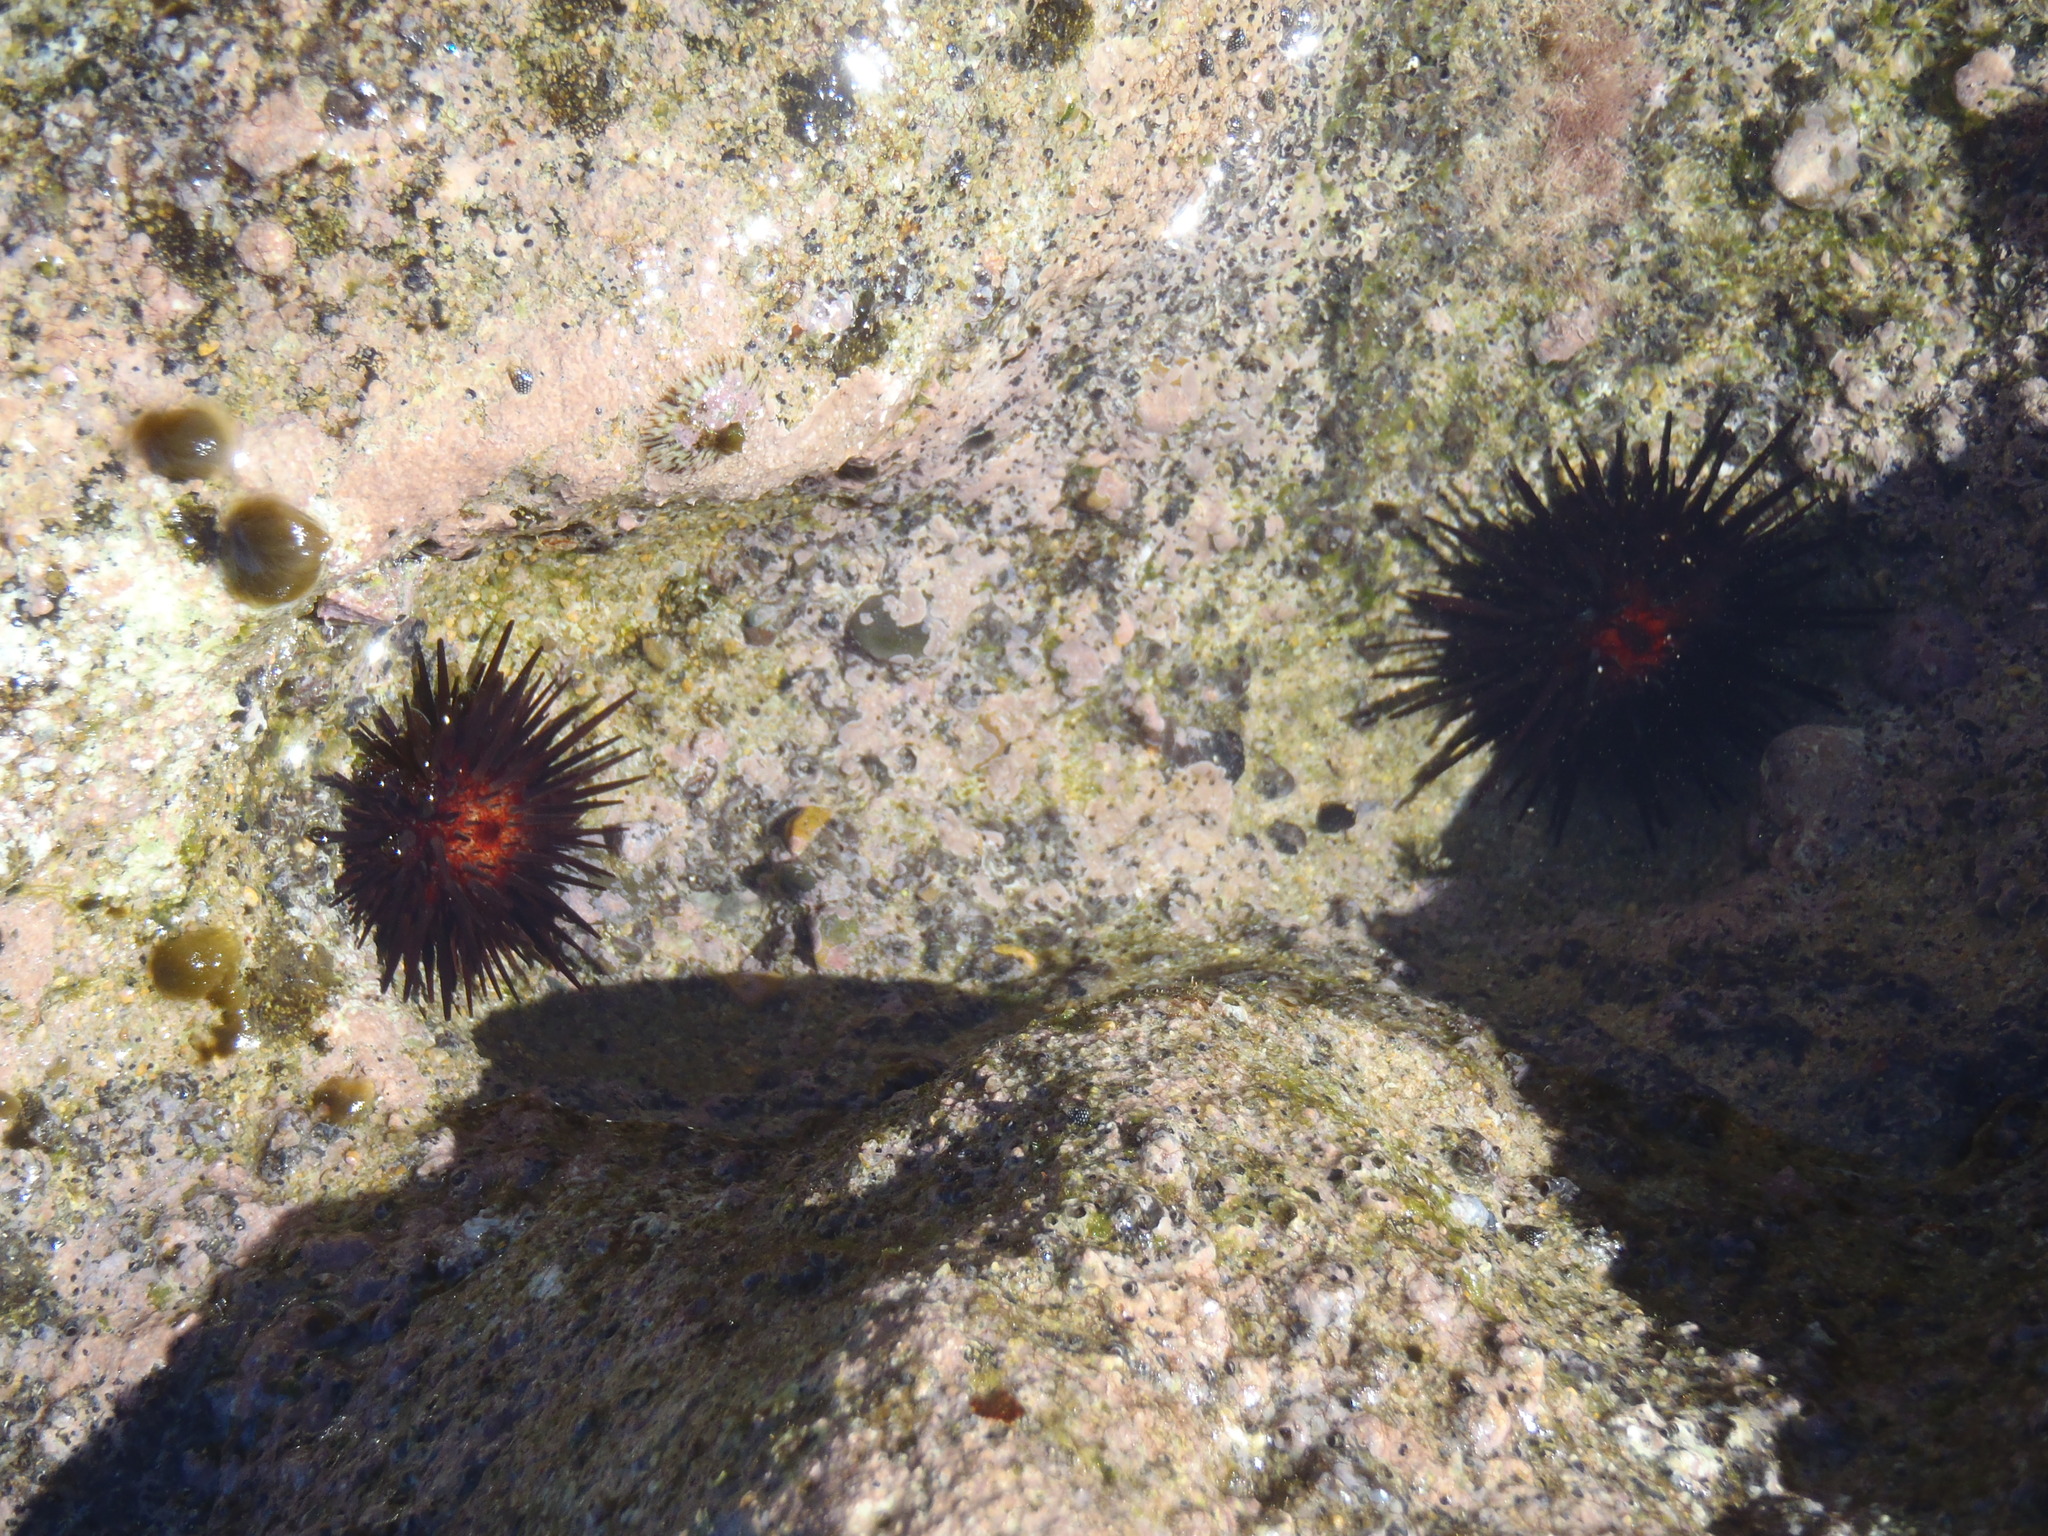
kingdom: Animalia
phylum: Echinodermata
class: Echinoidea
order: Camarodonta
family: Echinometridae
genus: Echinometra
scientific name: Echinometra lucunter
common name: Rock urchin
